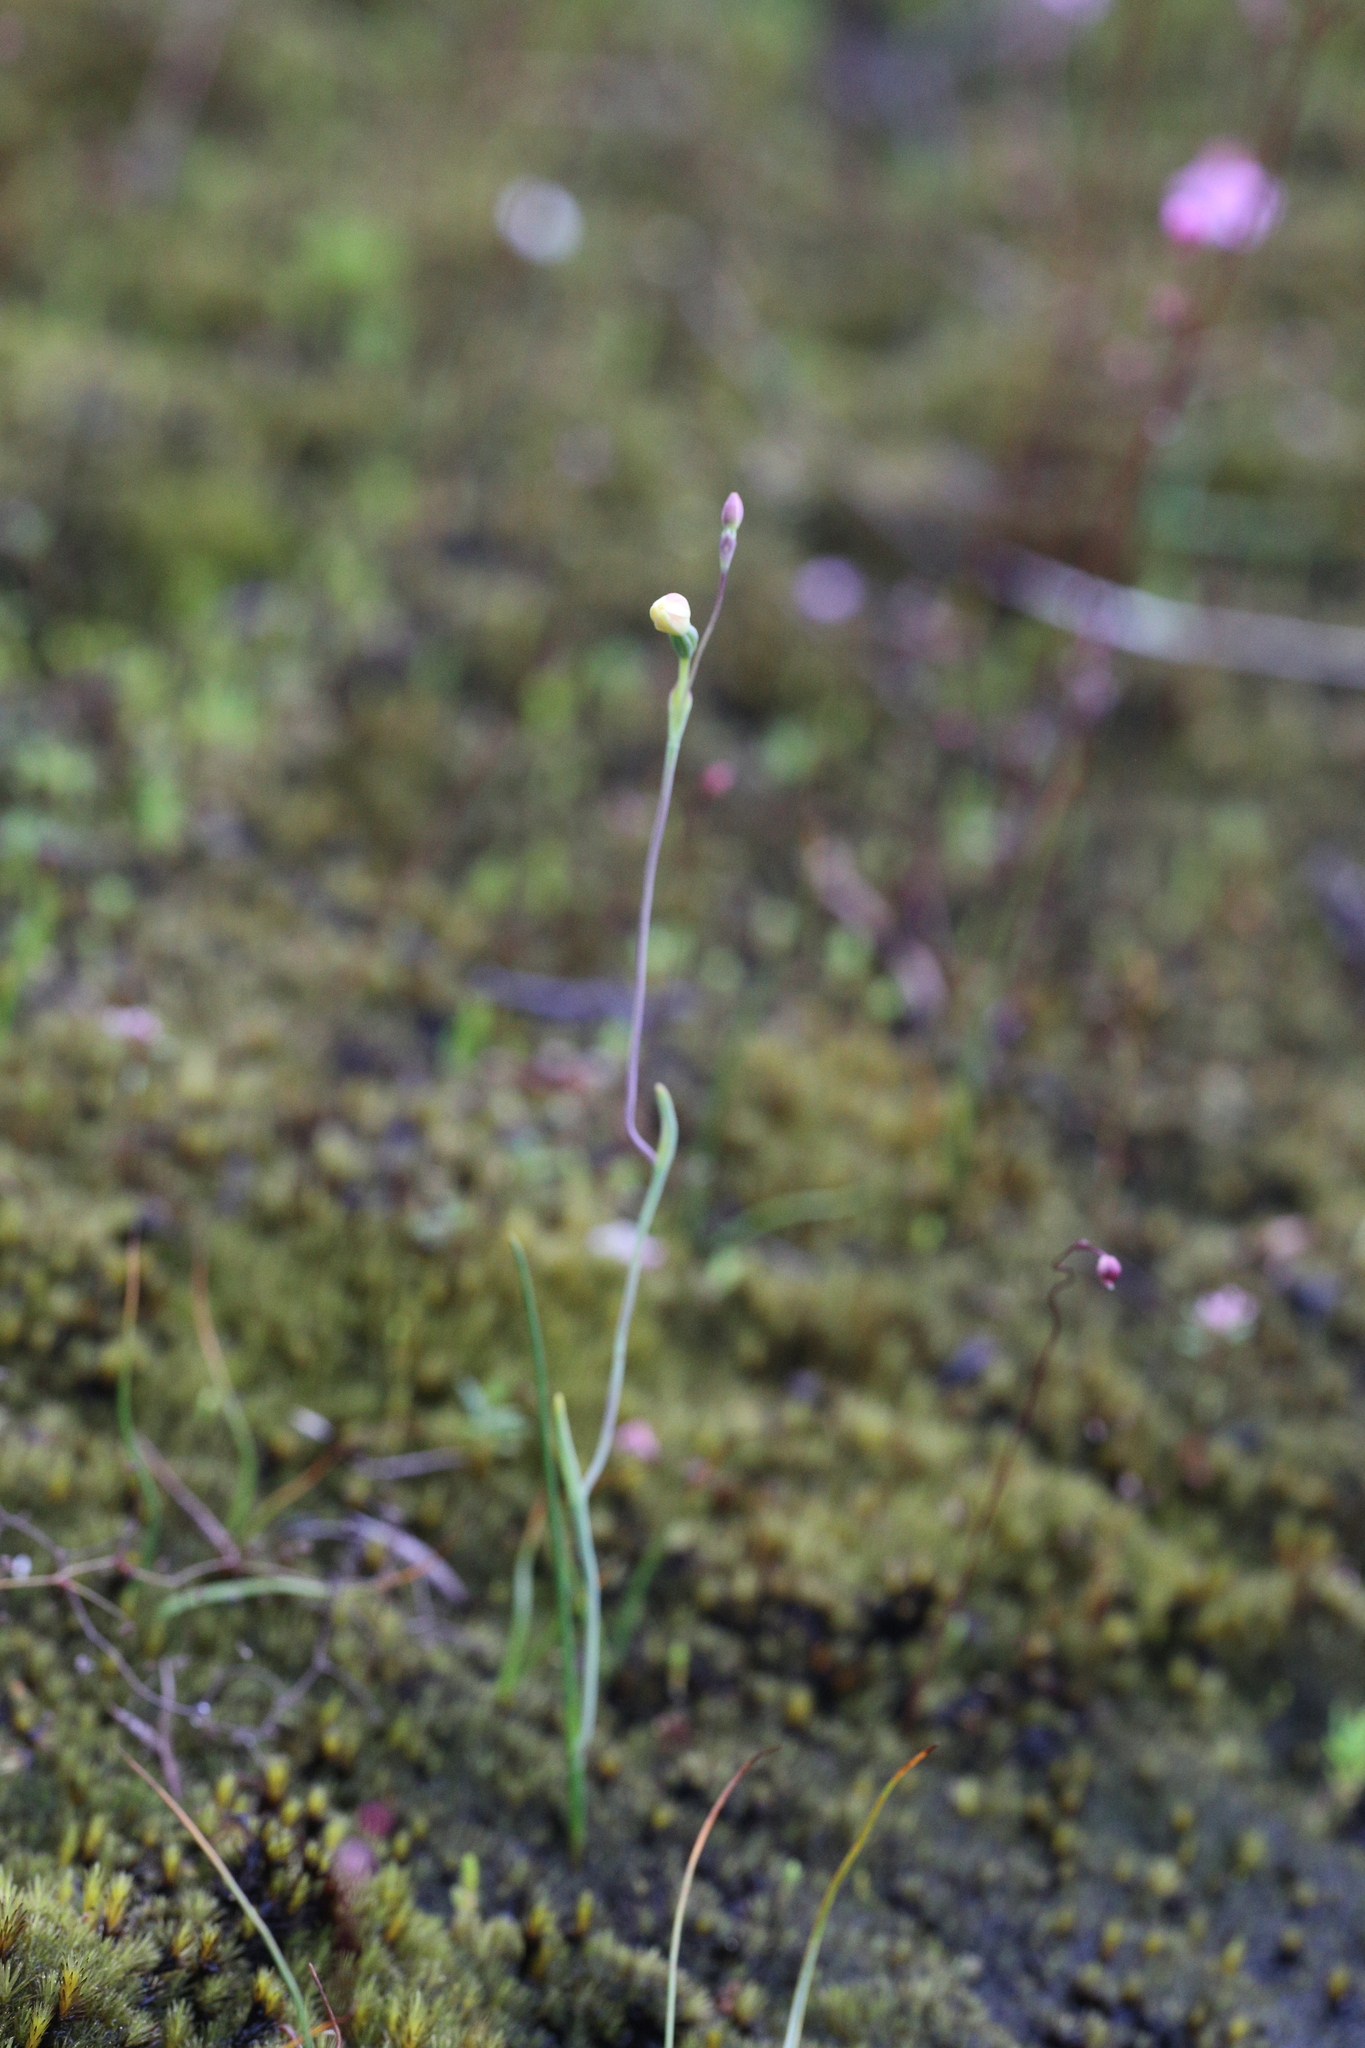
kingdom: Plantae
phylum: Tracheophyta
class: Liliopsida
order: Asparagales
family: Orchidaceae
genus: Thelymitra
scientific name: Thelymitra flexuosa
